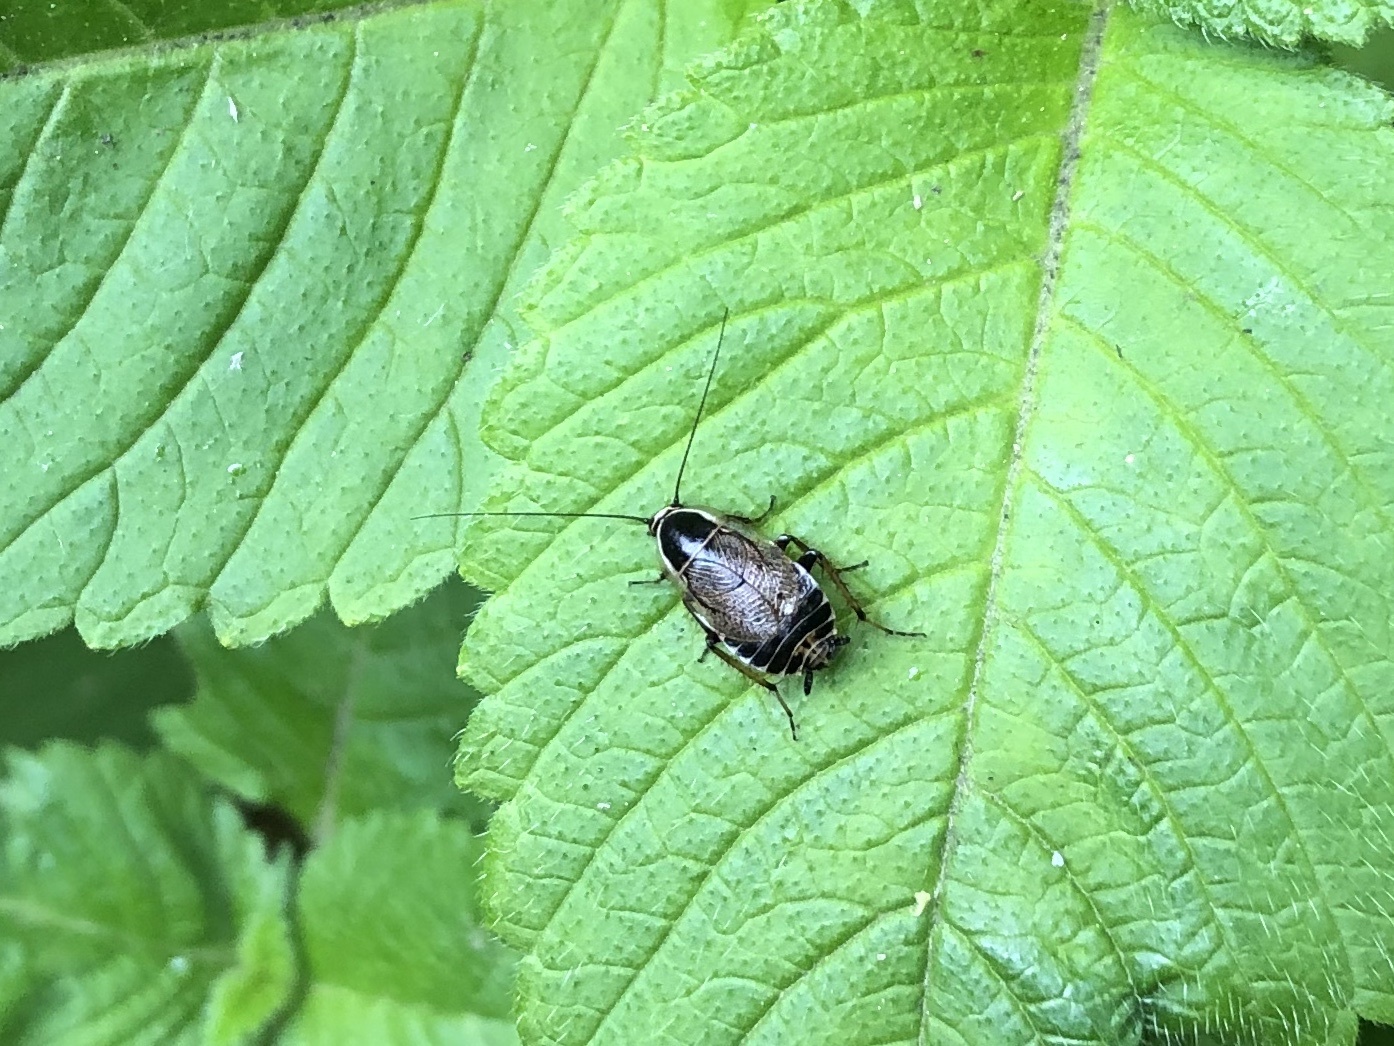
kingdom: Animalia
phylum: Arthropoda
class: Insecta
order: Blattodea
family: Ectobiidae
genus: Ectobius
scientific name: Ectobius sylvestris
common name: Forest cockroach
